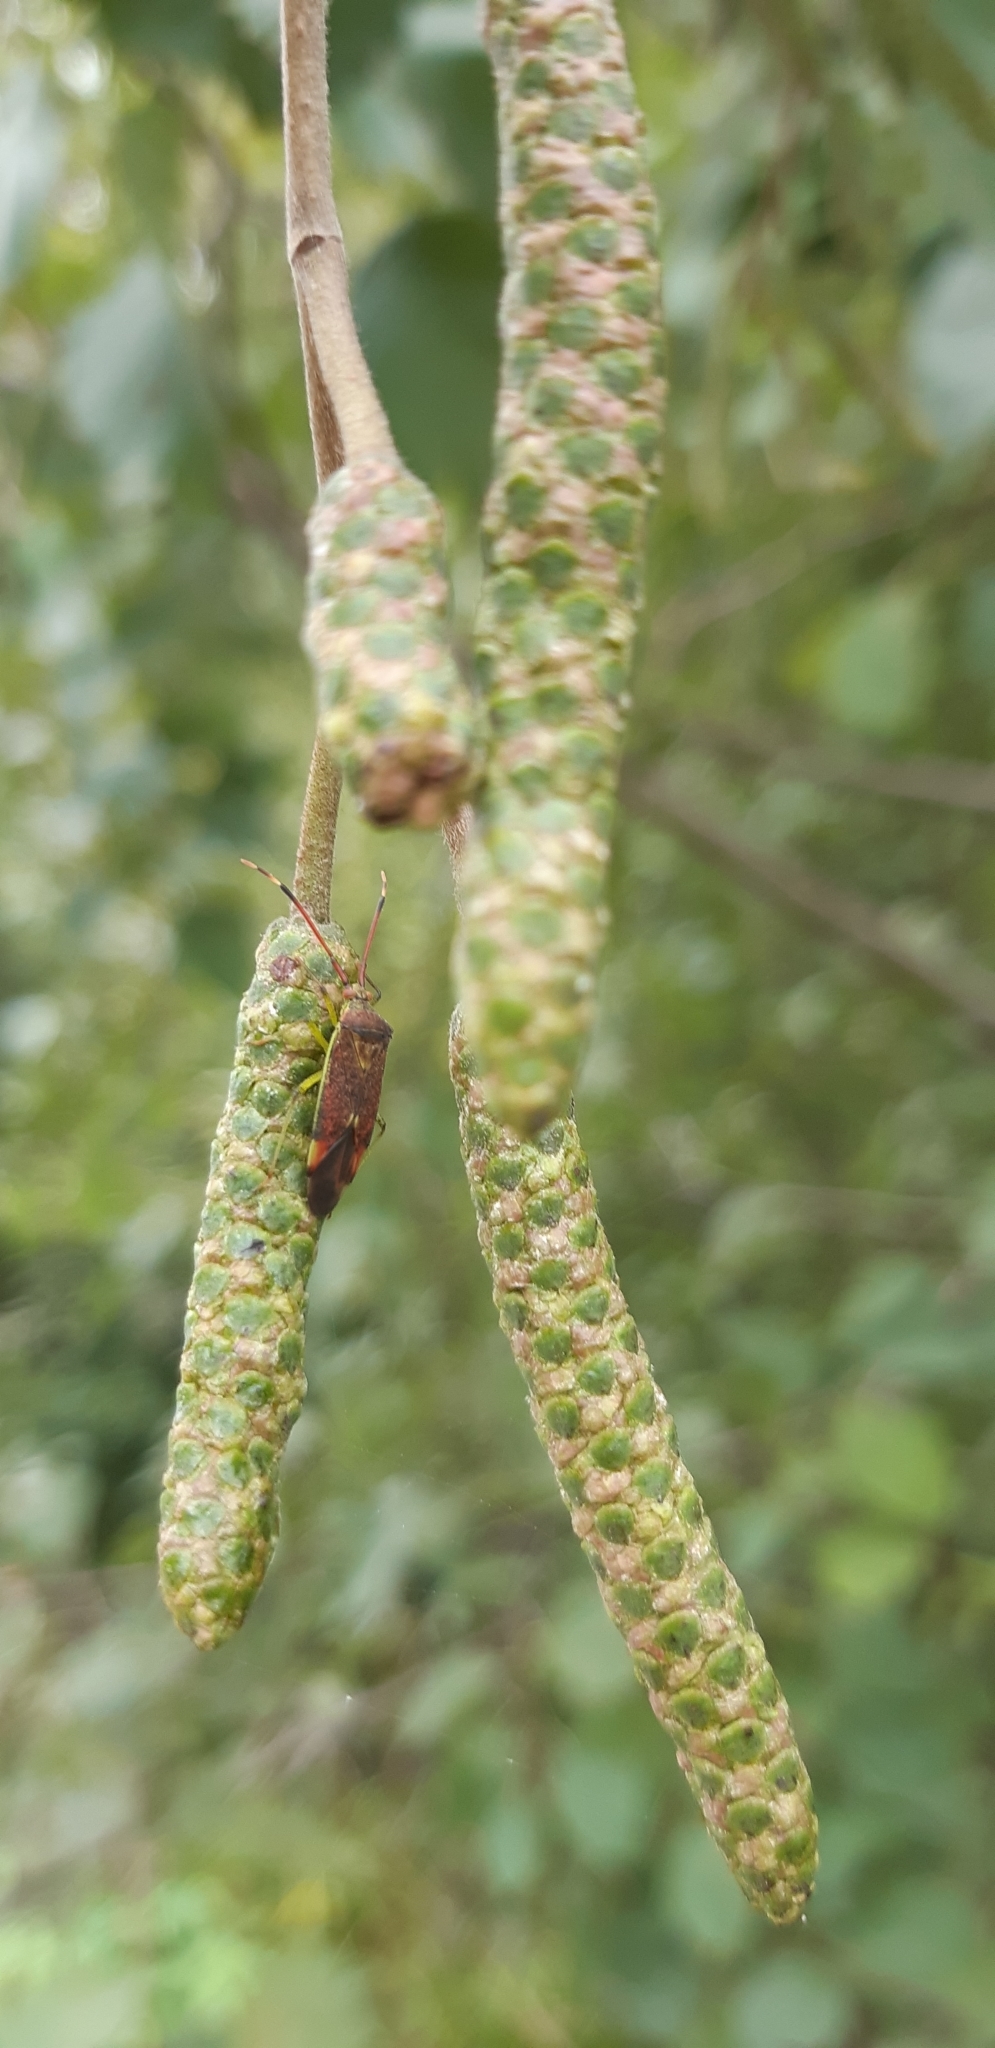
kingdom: Animalia
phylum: Arthropoda
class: Insecta
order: Hemiptera
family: Miridae
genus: Pantilius
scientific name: Pantilius tunicatus
